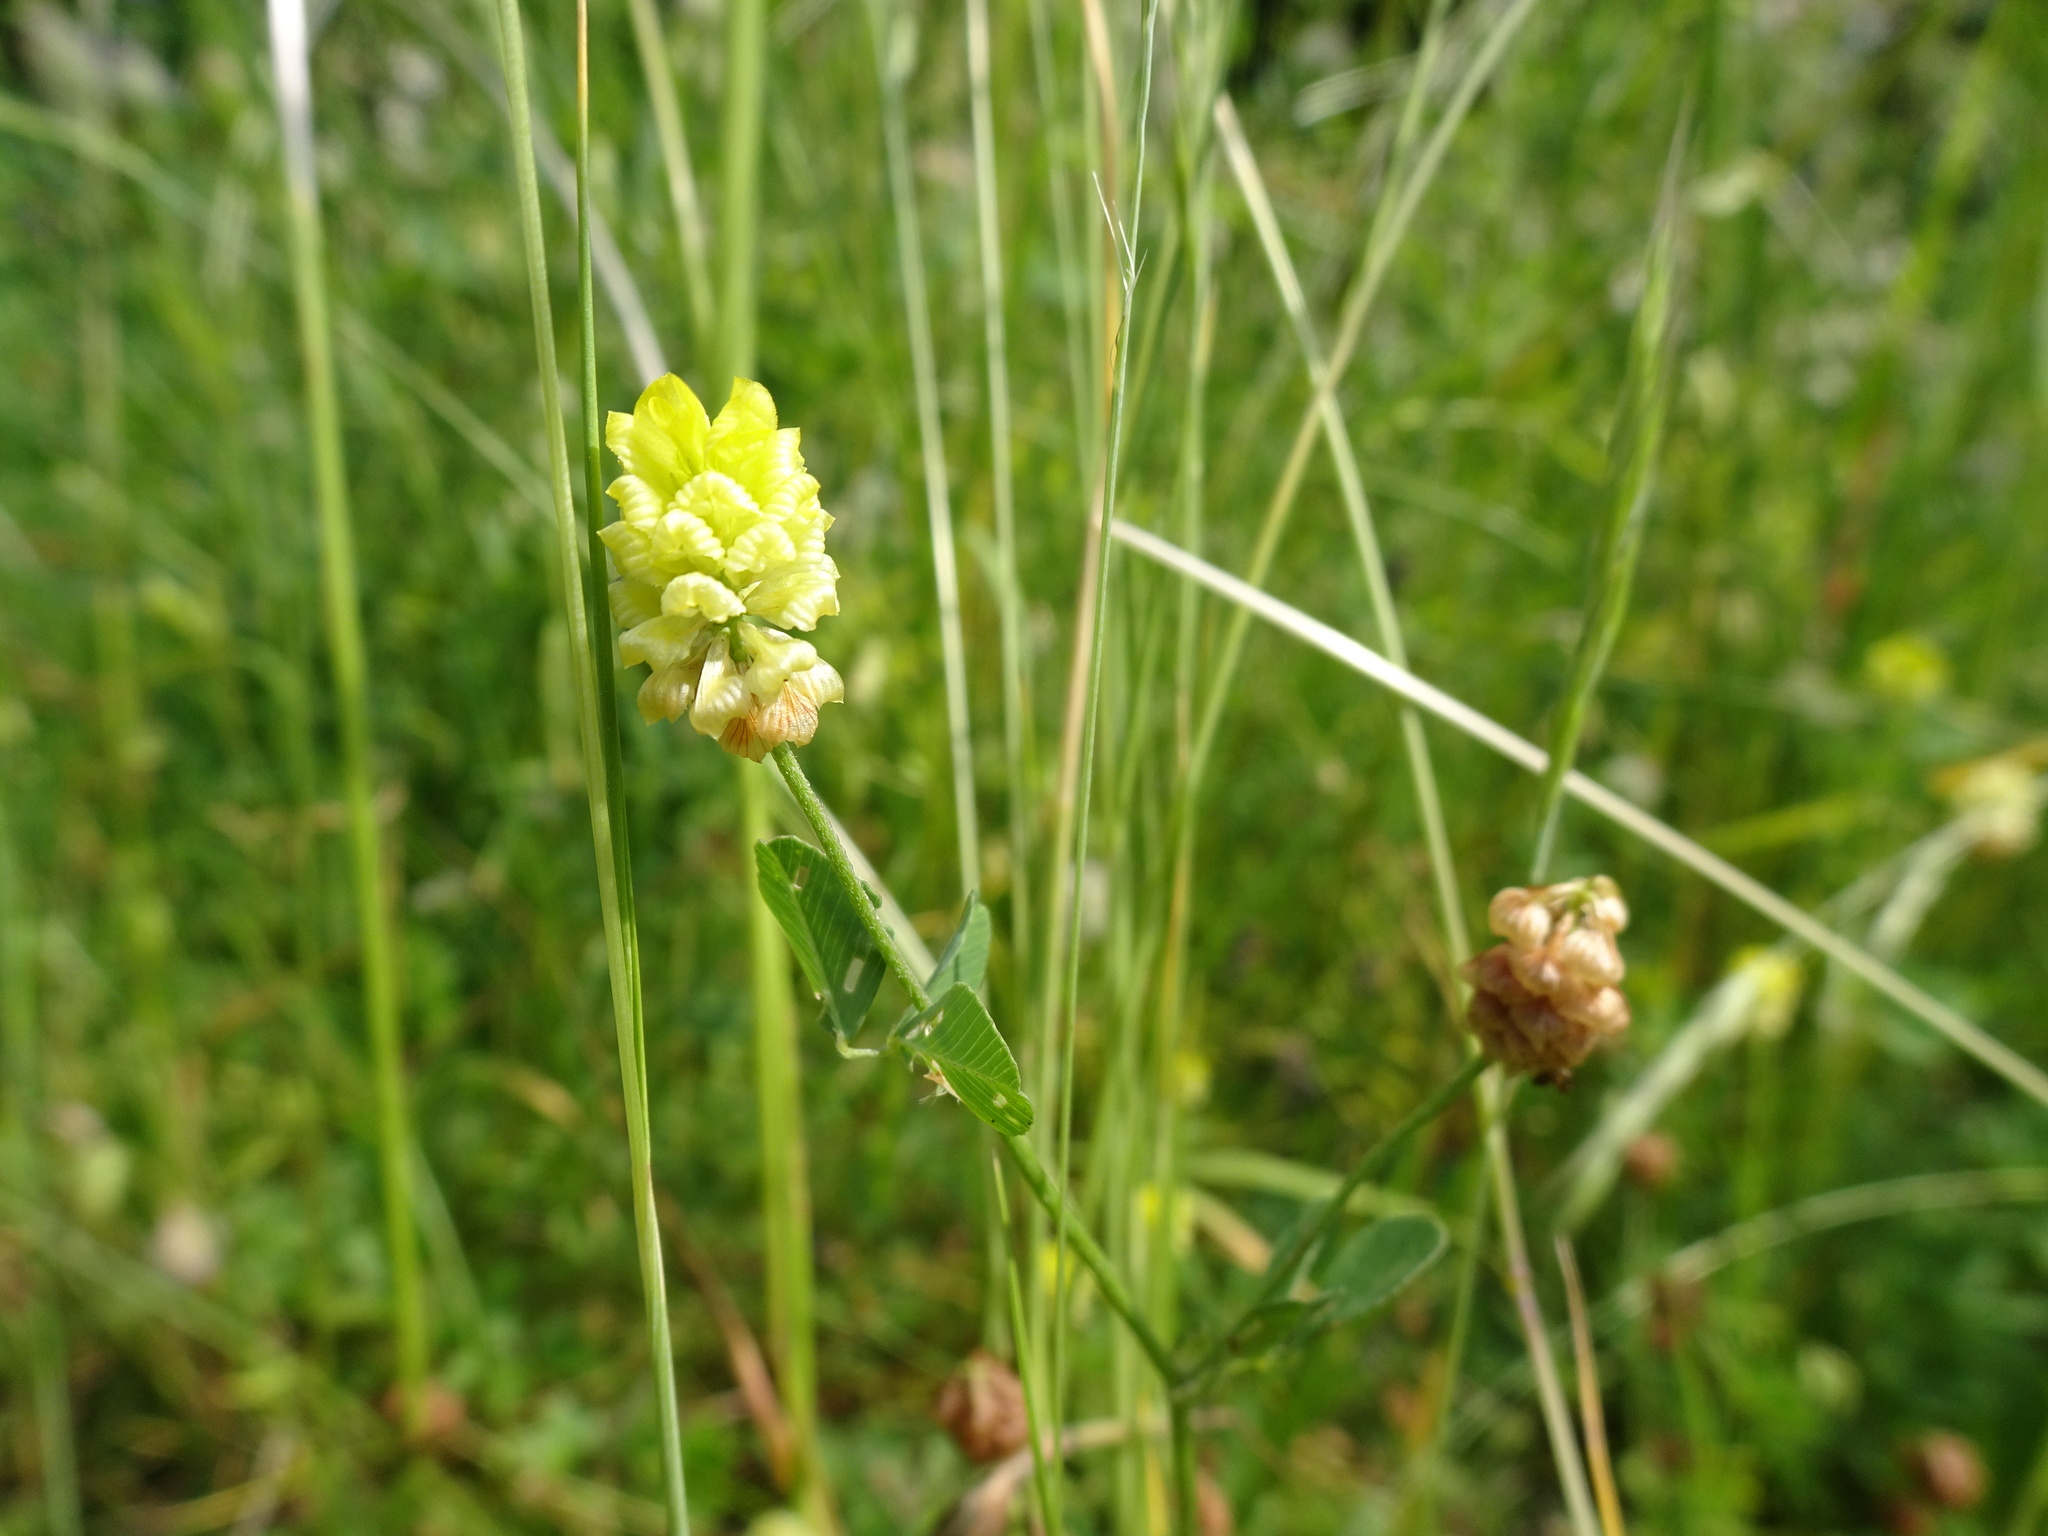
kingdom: Plantae
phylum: Tracheophyta
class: Magnoliopsida
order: Fabales
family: Fabaceae
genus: Trifolium
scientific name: Trifolium campestre
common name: Field clover
